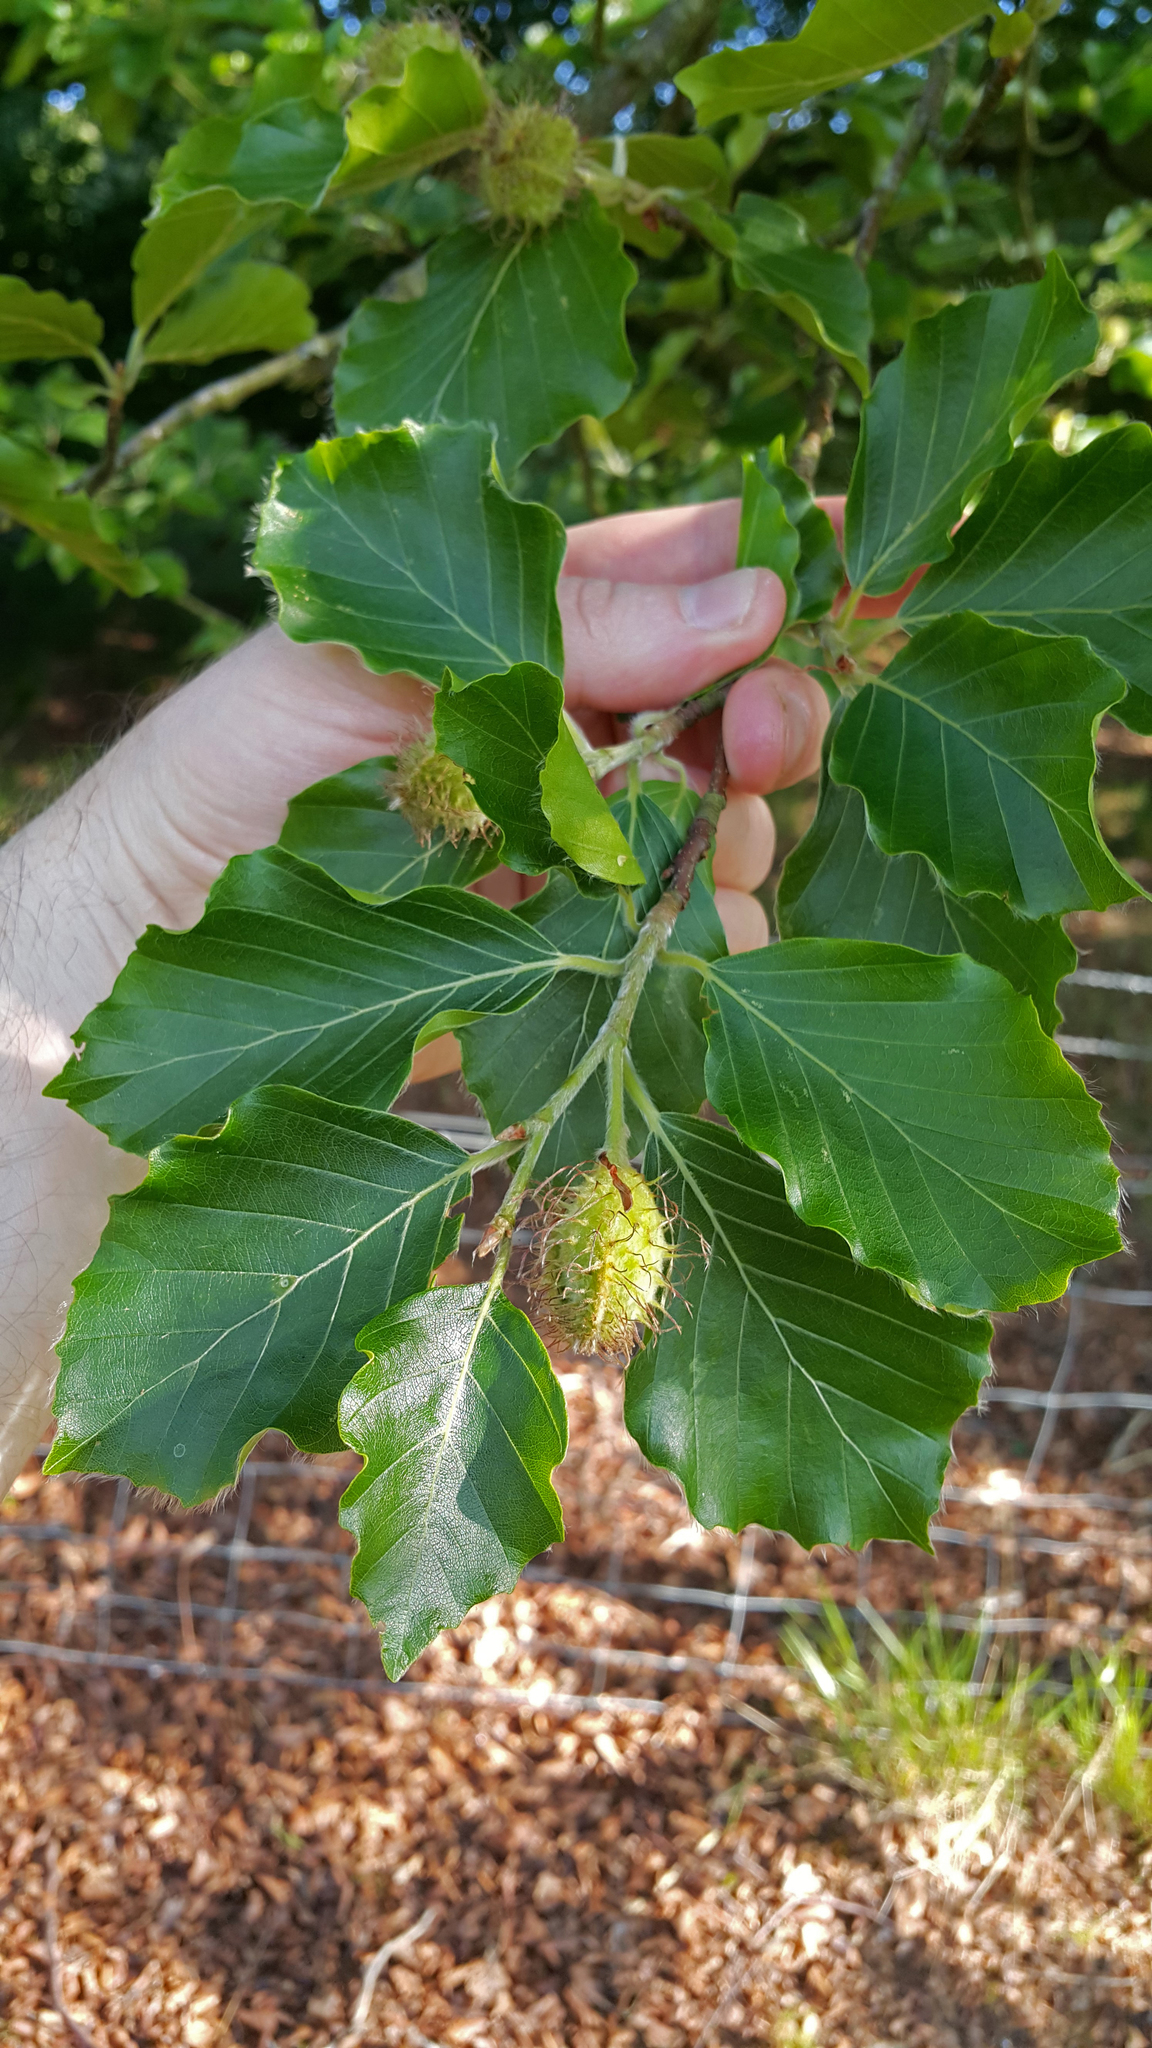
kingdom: Plantae
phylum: Tracheophyta
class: Magnoliopsida
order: Fagales
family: Fagaceae
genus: Fagus
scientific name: Fagus sylvatica
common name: Beech
